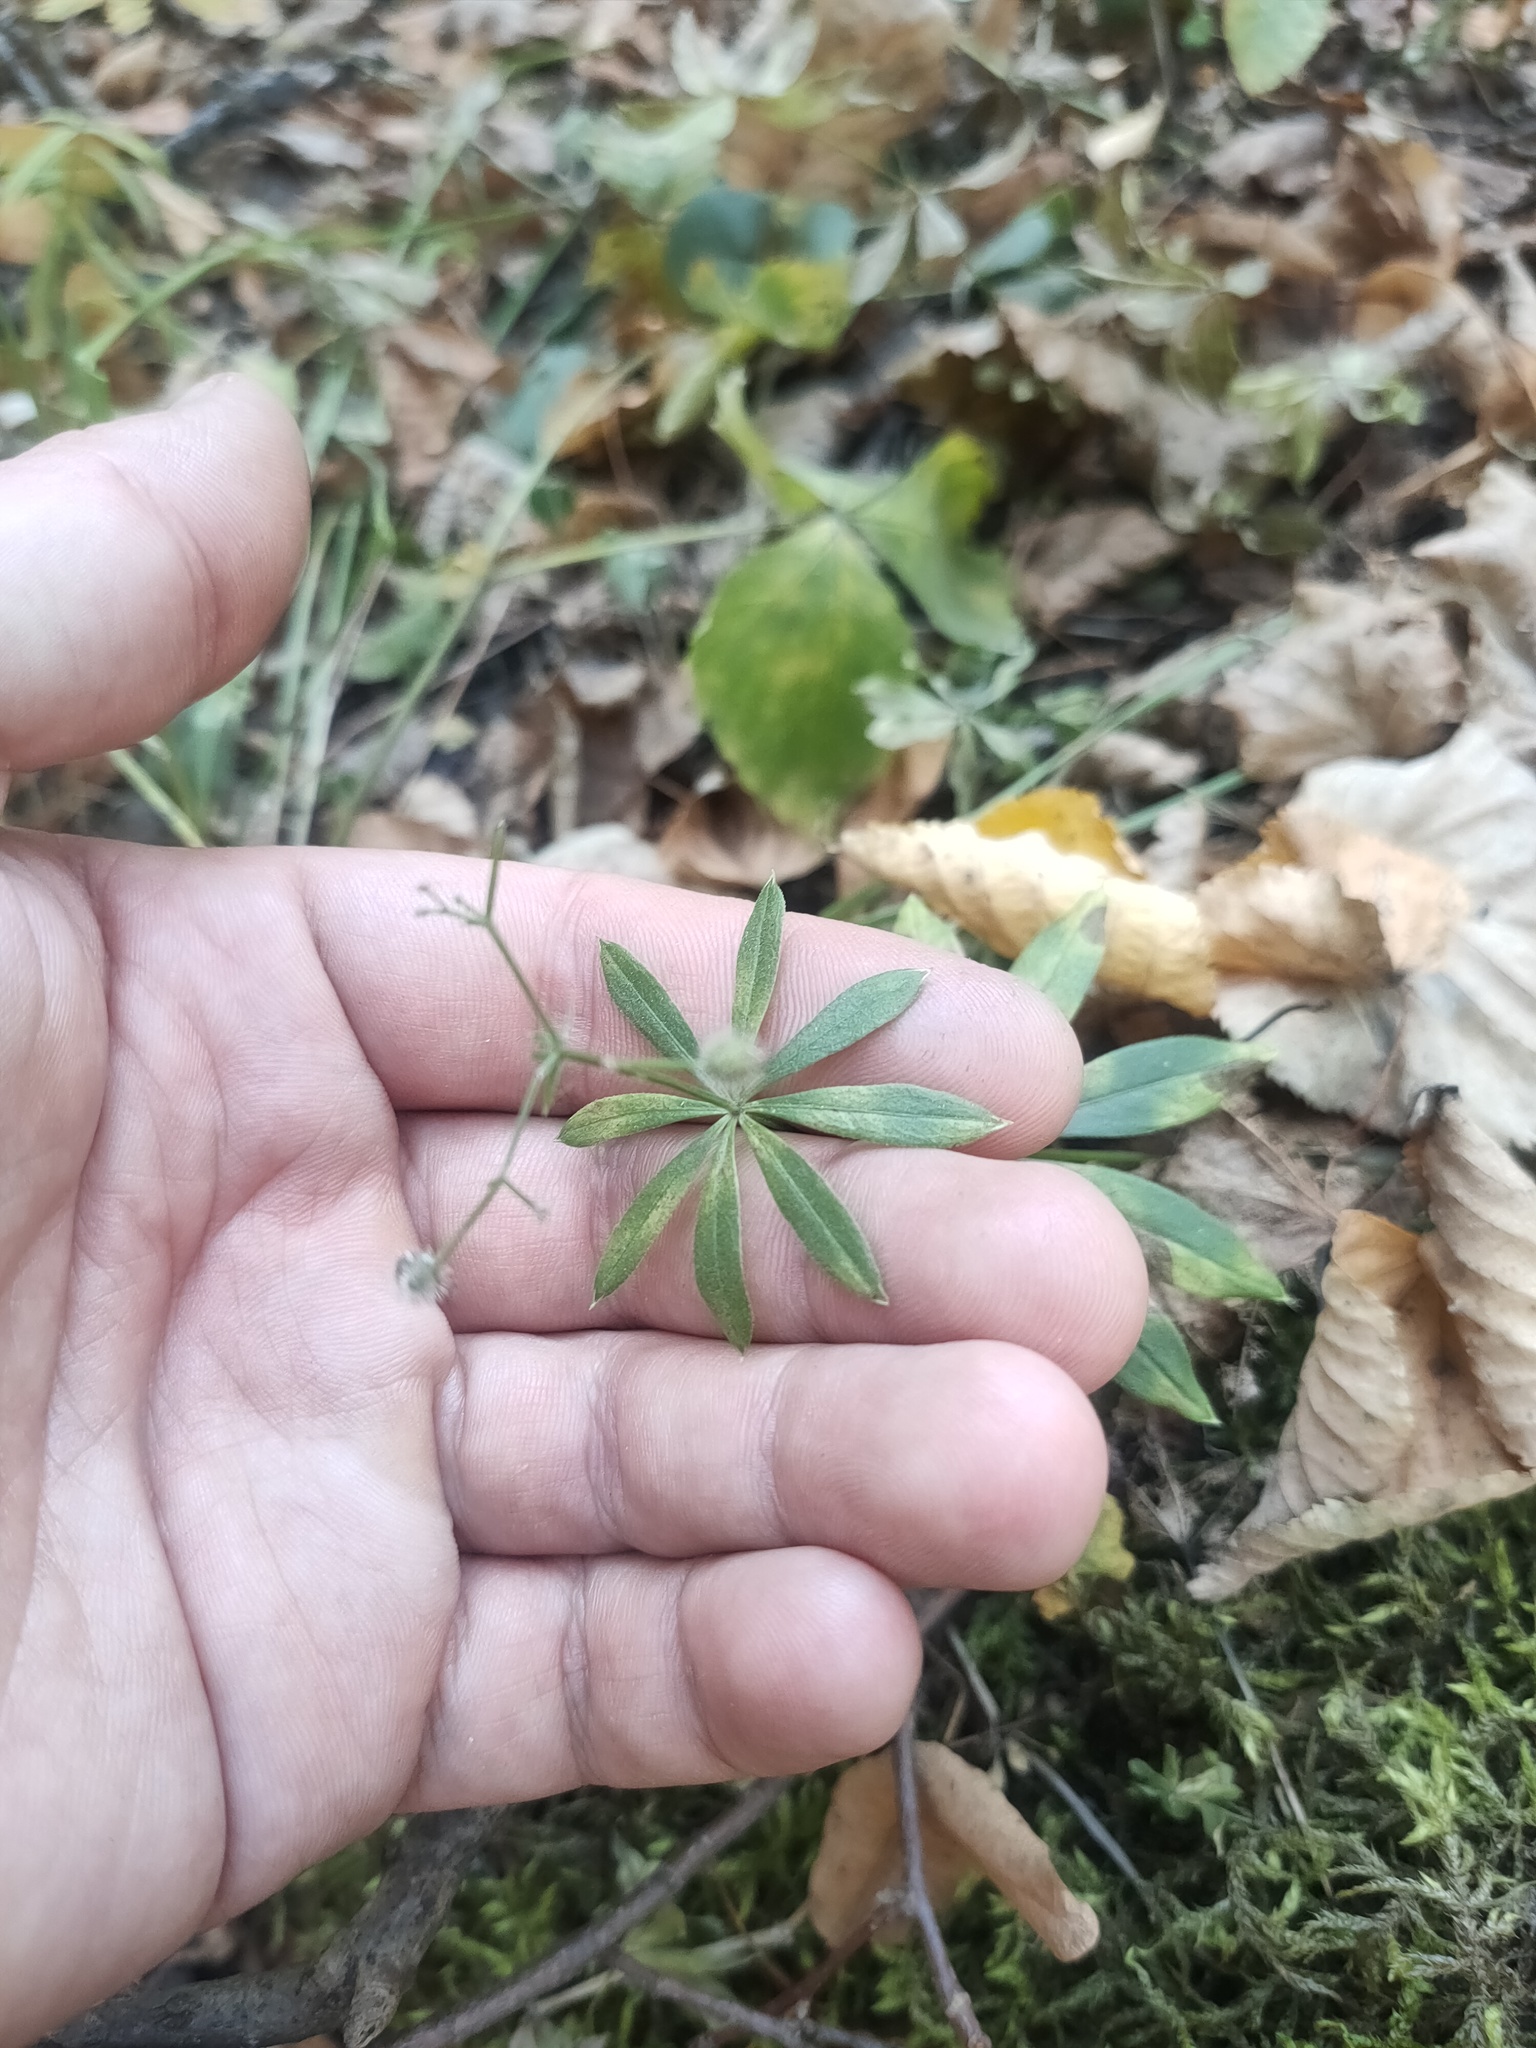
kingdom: Plantae
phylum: Tracheophyta
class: Magnoliopsida
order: Gentianales
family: Rubiaceae
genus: Galium
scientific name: Galium odoratum
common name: Sweet woodruff
